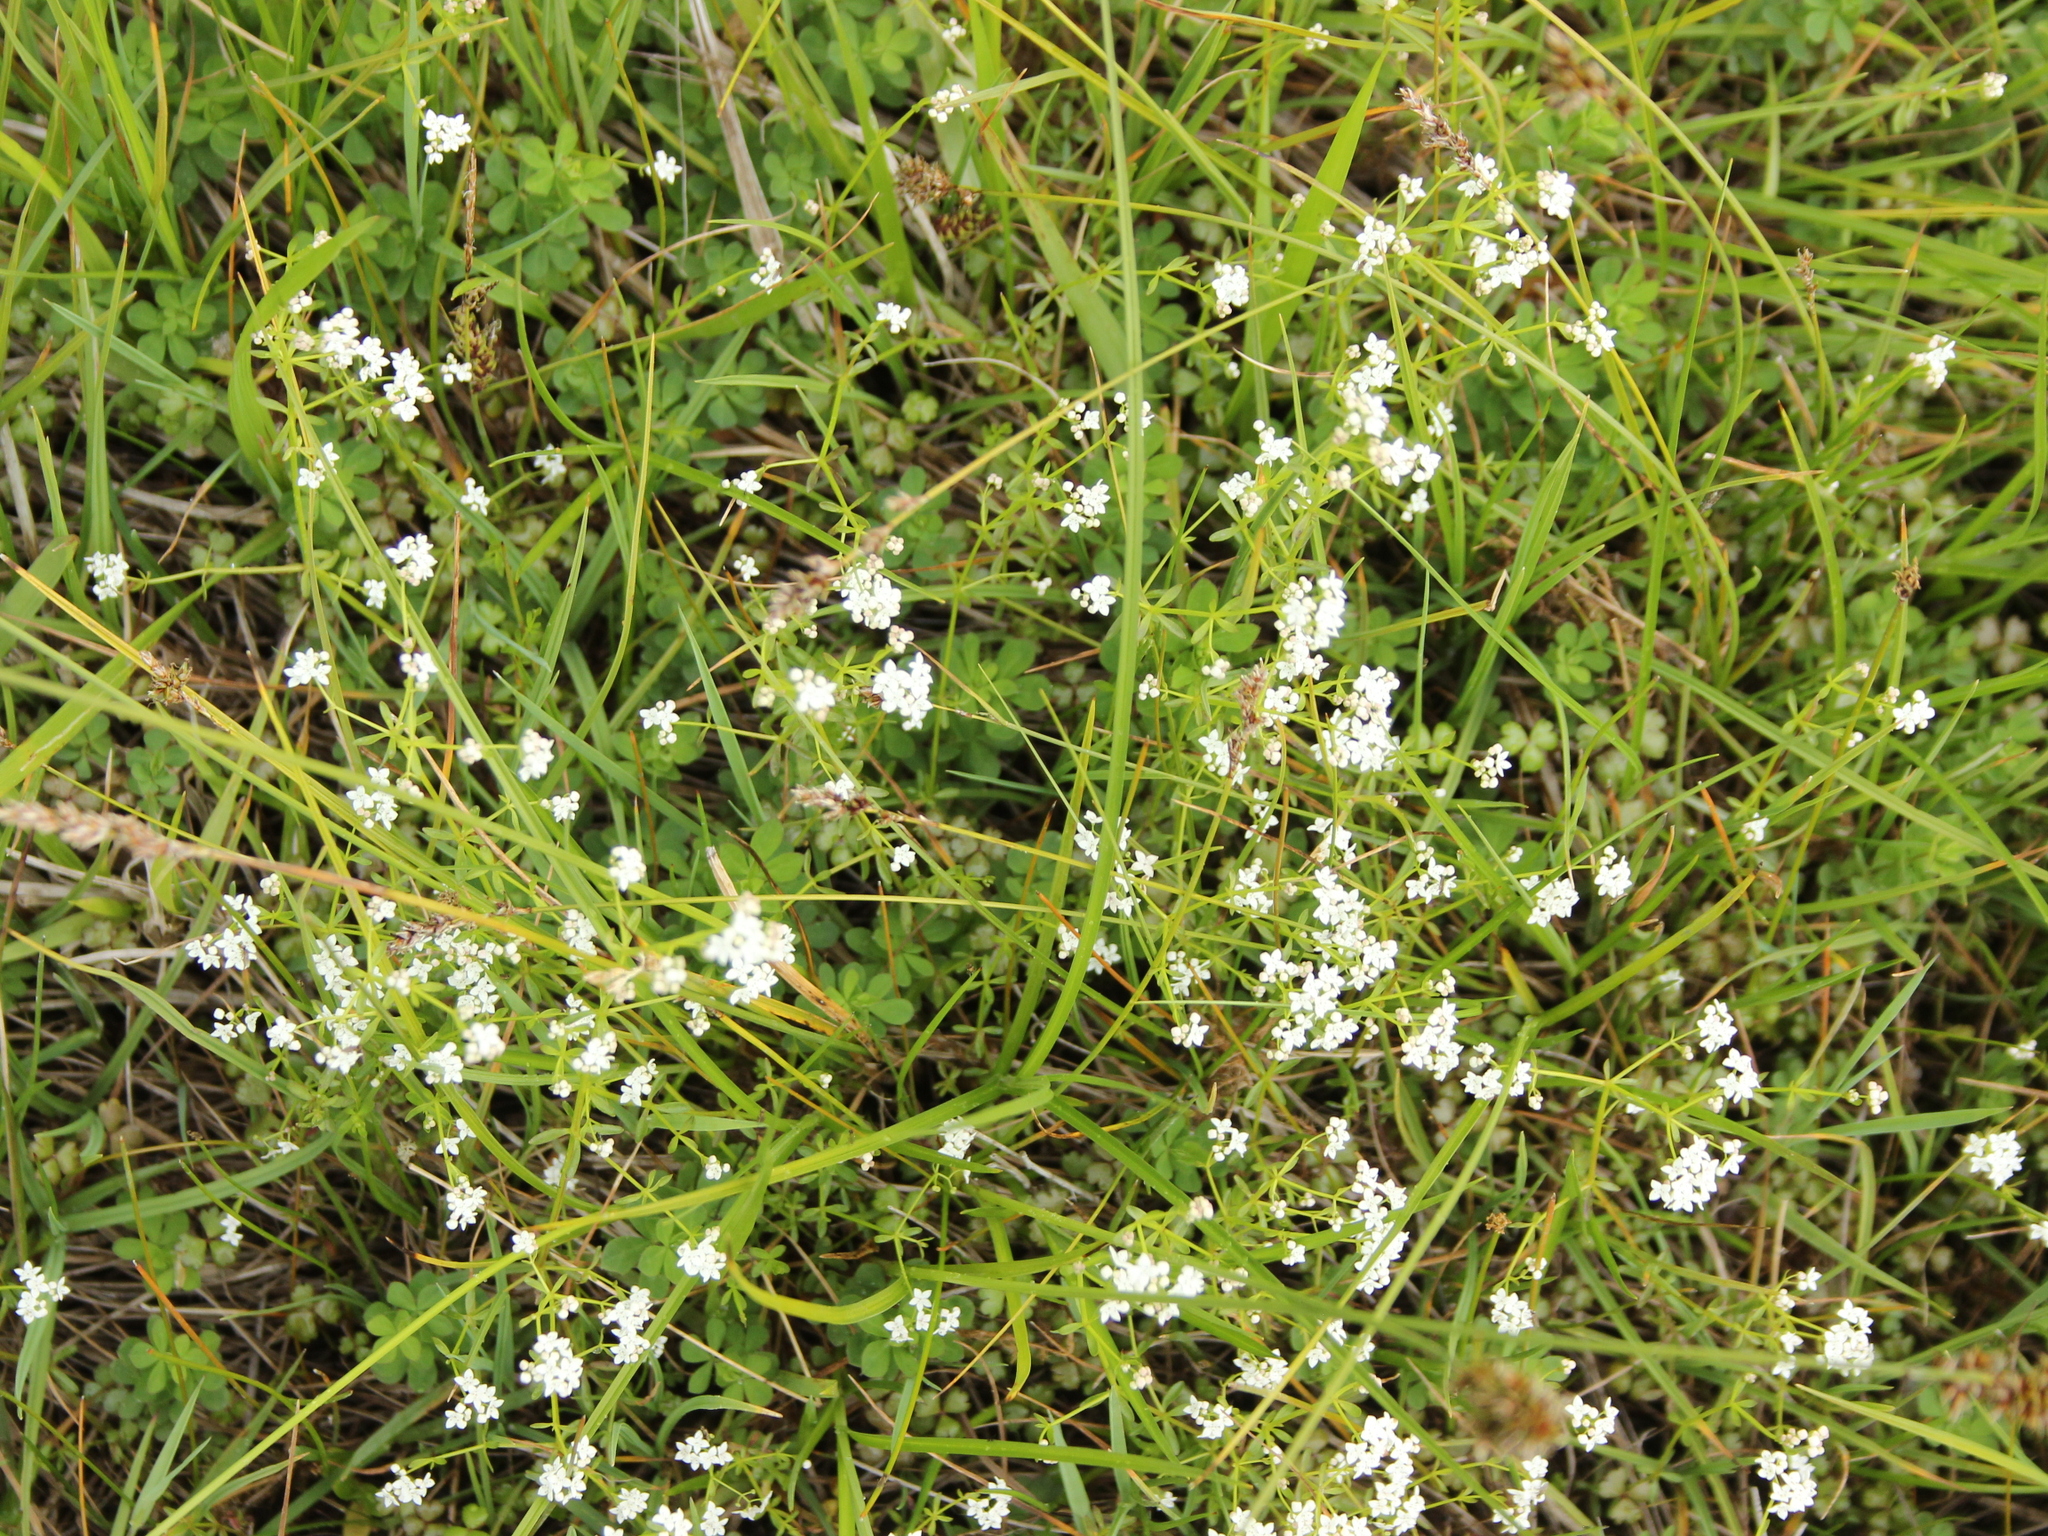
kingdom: Plantae
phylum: Tracheophyta
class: Magnoliopsida
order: Gentianales
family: Rubiaceae
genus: Galium
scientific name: Galium palustre
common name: Common marsh-bedstraw
